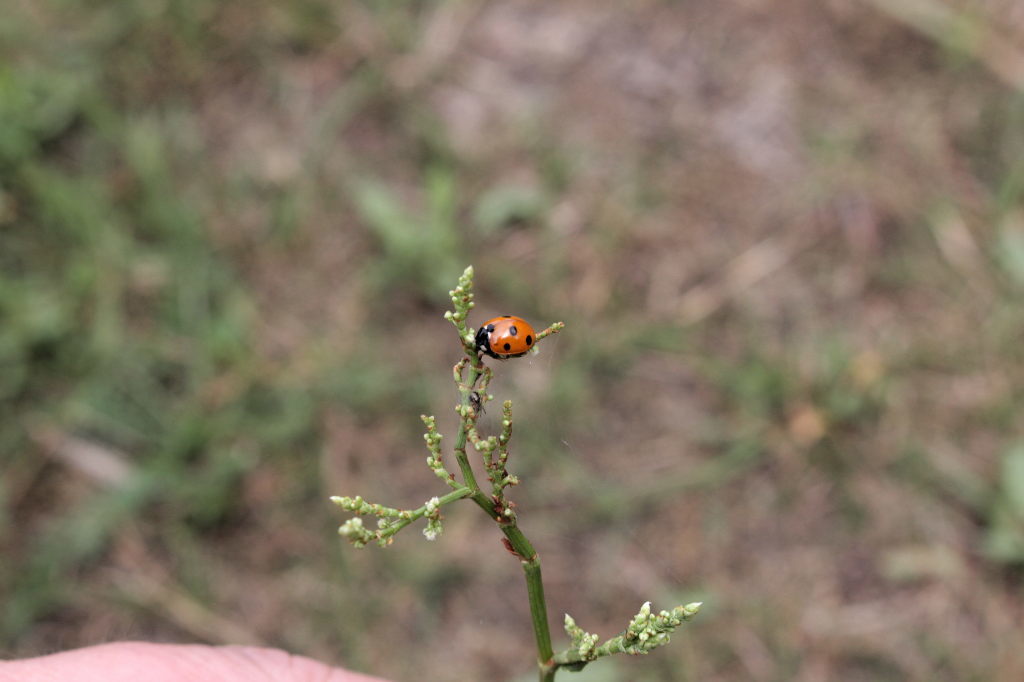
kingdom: Animalia
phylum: Arthropoda
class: Insecta
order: Coleoptera
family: Coccinellidae
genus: Coccinella
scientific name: Coccinella septempunctata
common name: Sevenspotted lady beetle
